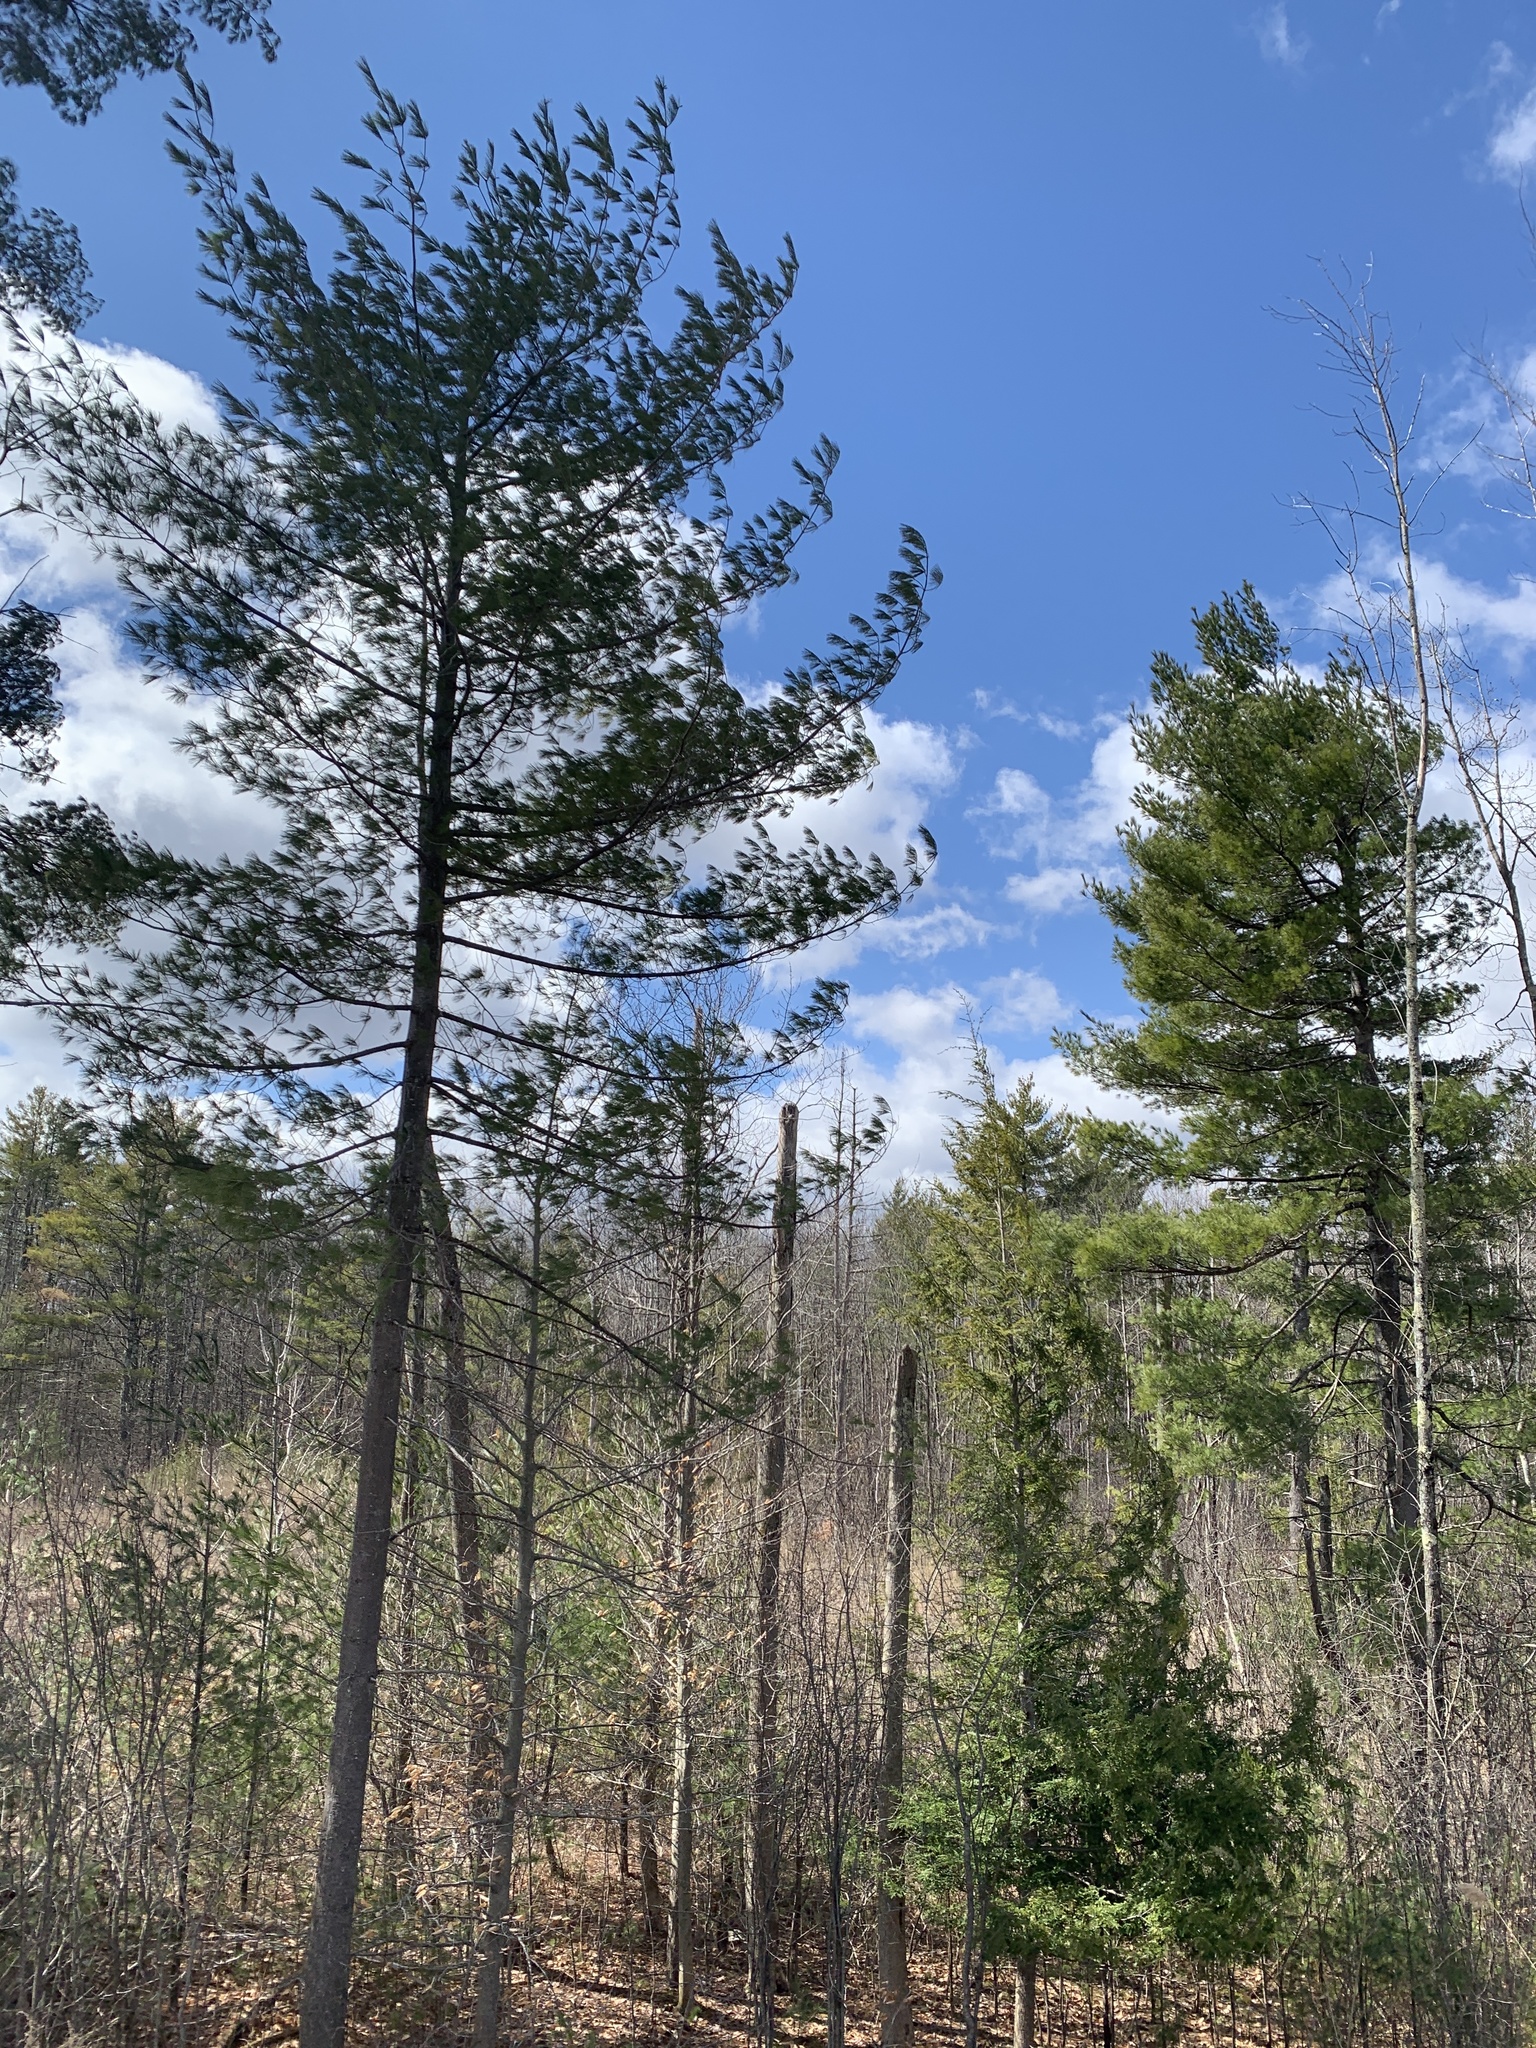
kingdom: Plantae
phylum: Tracheophyta
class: Pinopsida
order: Pinales
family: Pinaceae
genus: Pinus
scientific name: Pinus strobus
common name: Weymouth pine
